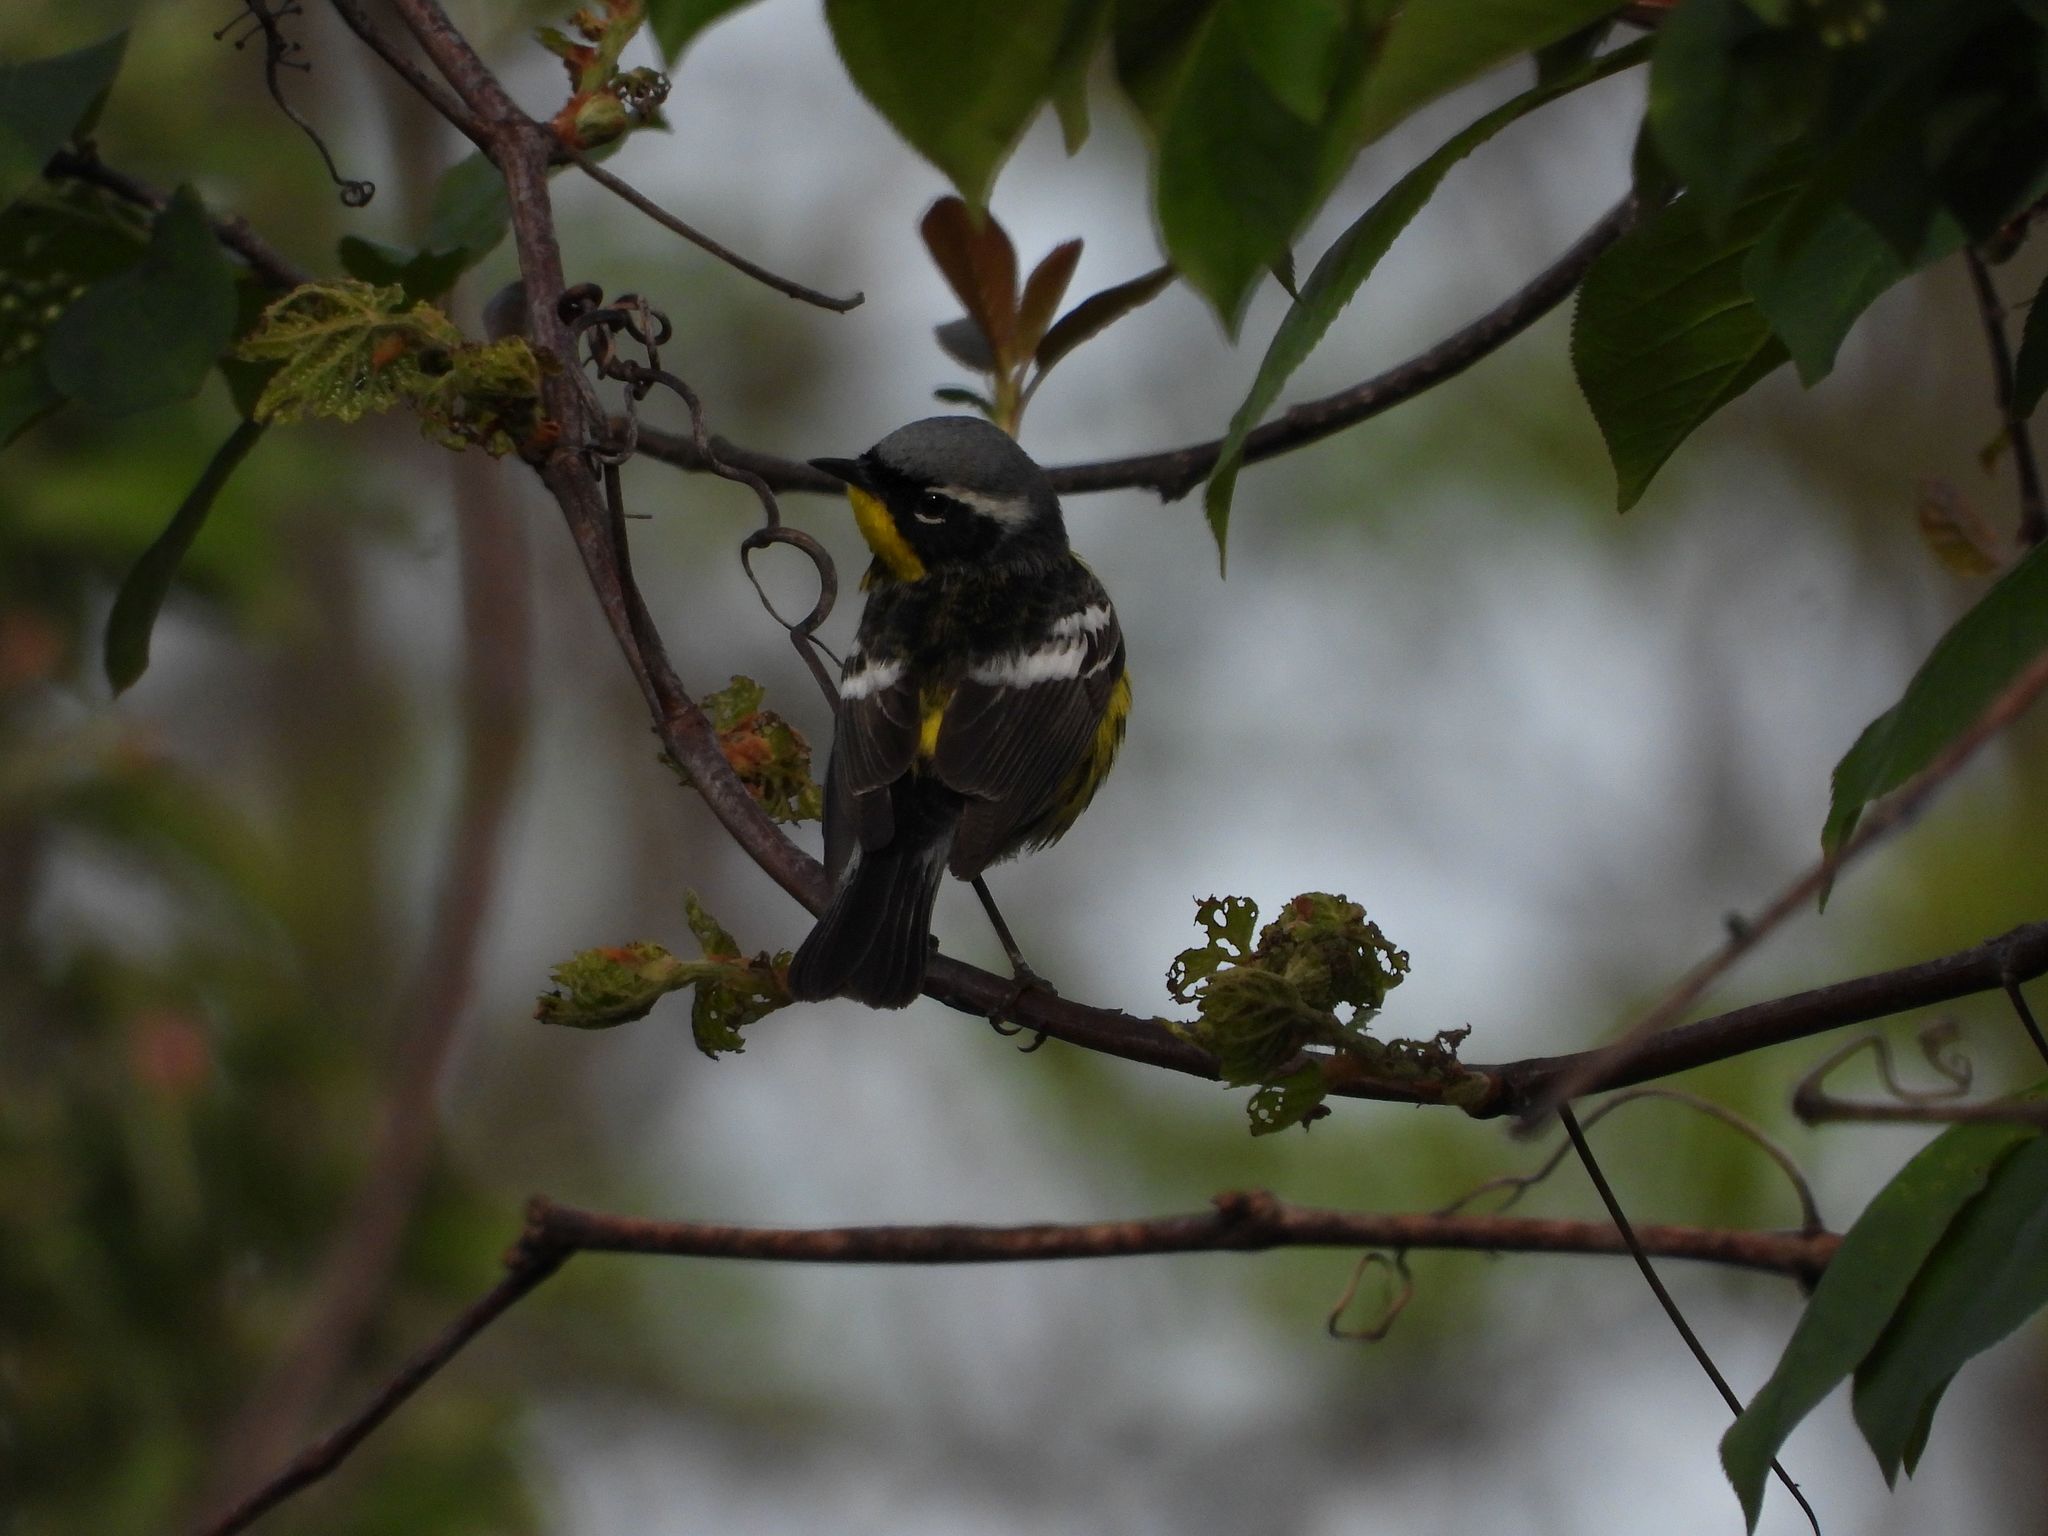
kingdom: Animalia
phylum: Chordata
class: Aves
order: Passeriformes
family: Parulidae
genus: Setophaga
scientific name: Setophaga magnolia
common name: Magnolia warbler
